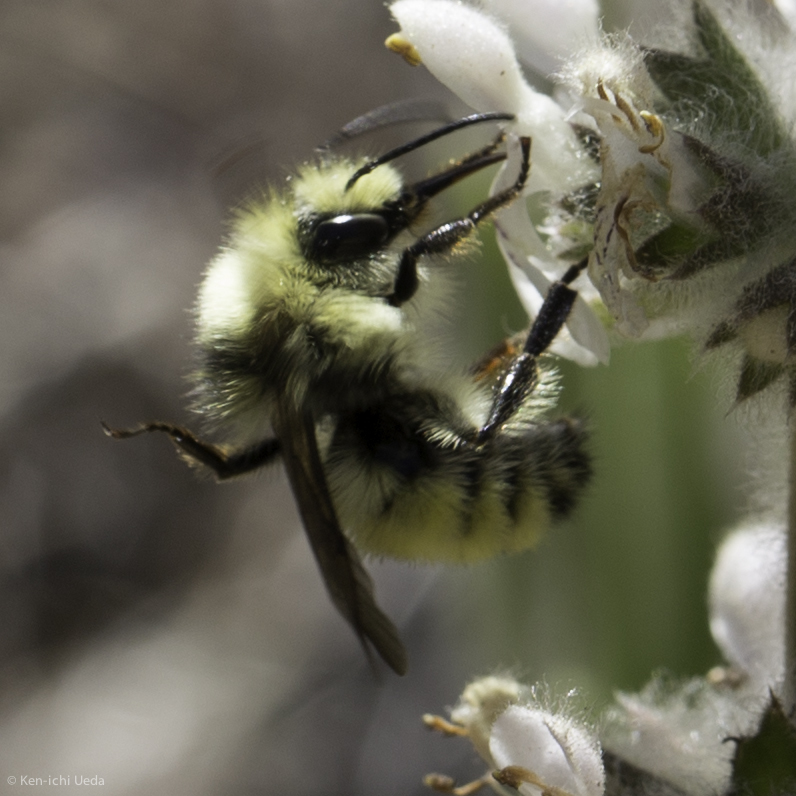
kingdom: Animalia
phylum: Arthropoda
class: Insecta
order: Hymenoptera
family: Apidae
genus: Bombus
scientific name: Bombus vandykei
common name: Van dyke bumble bee
